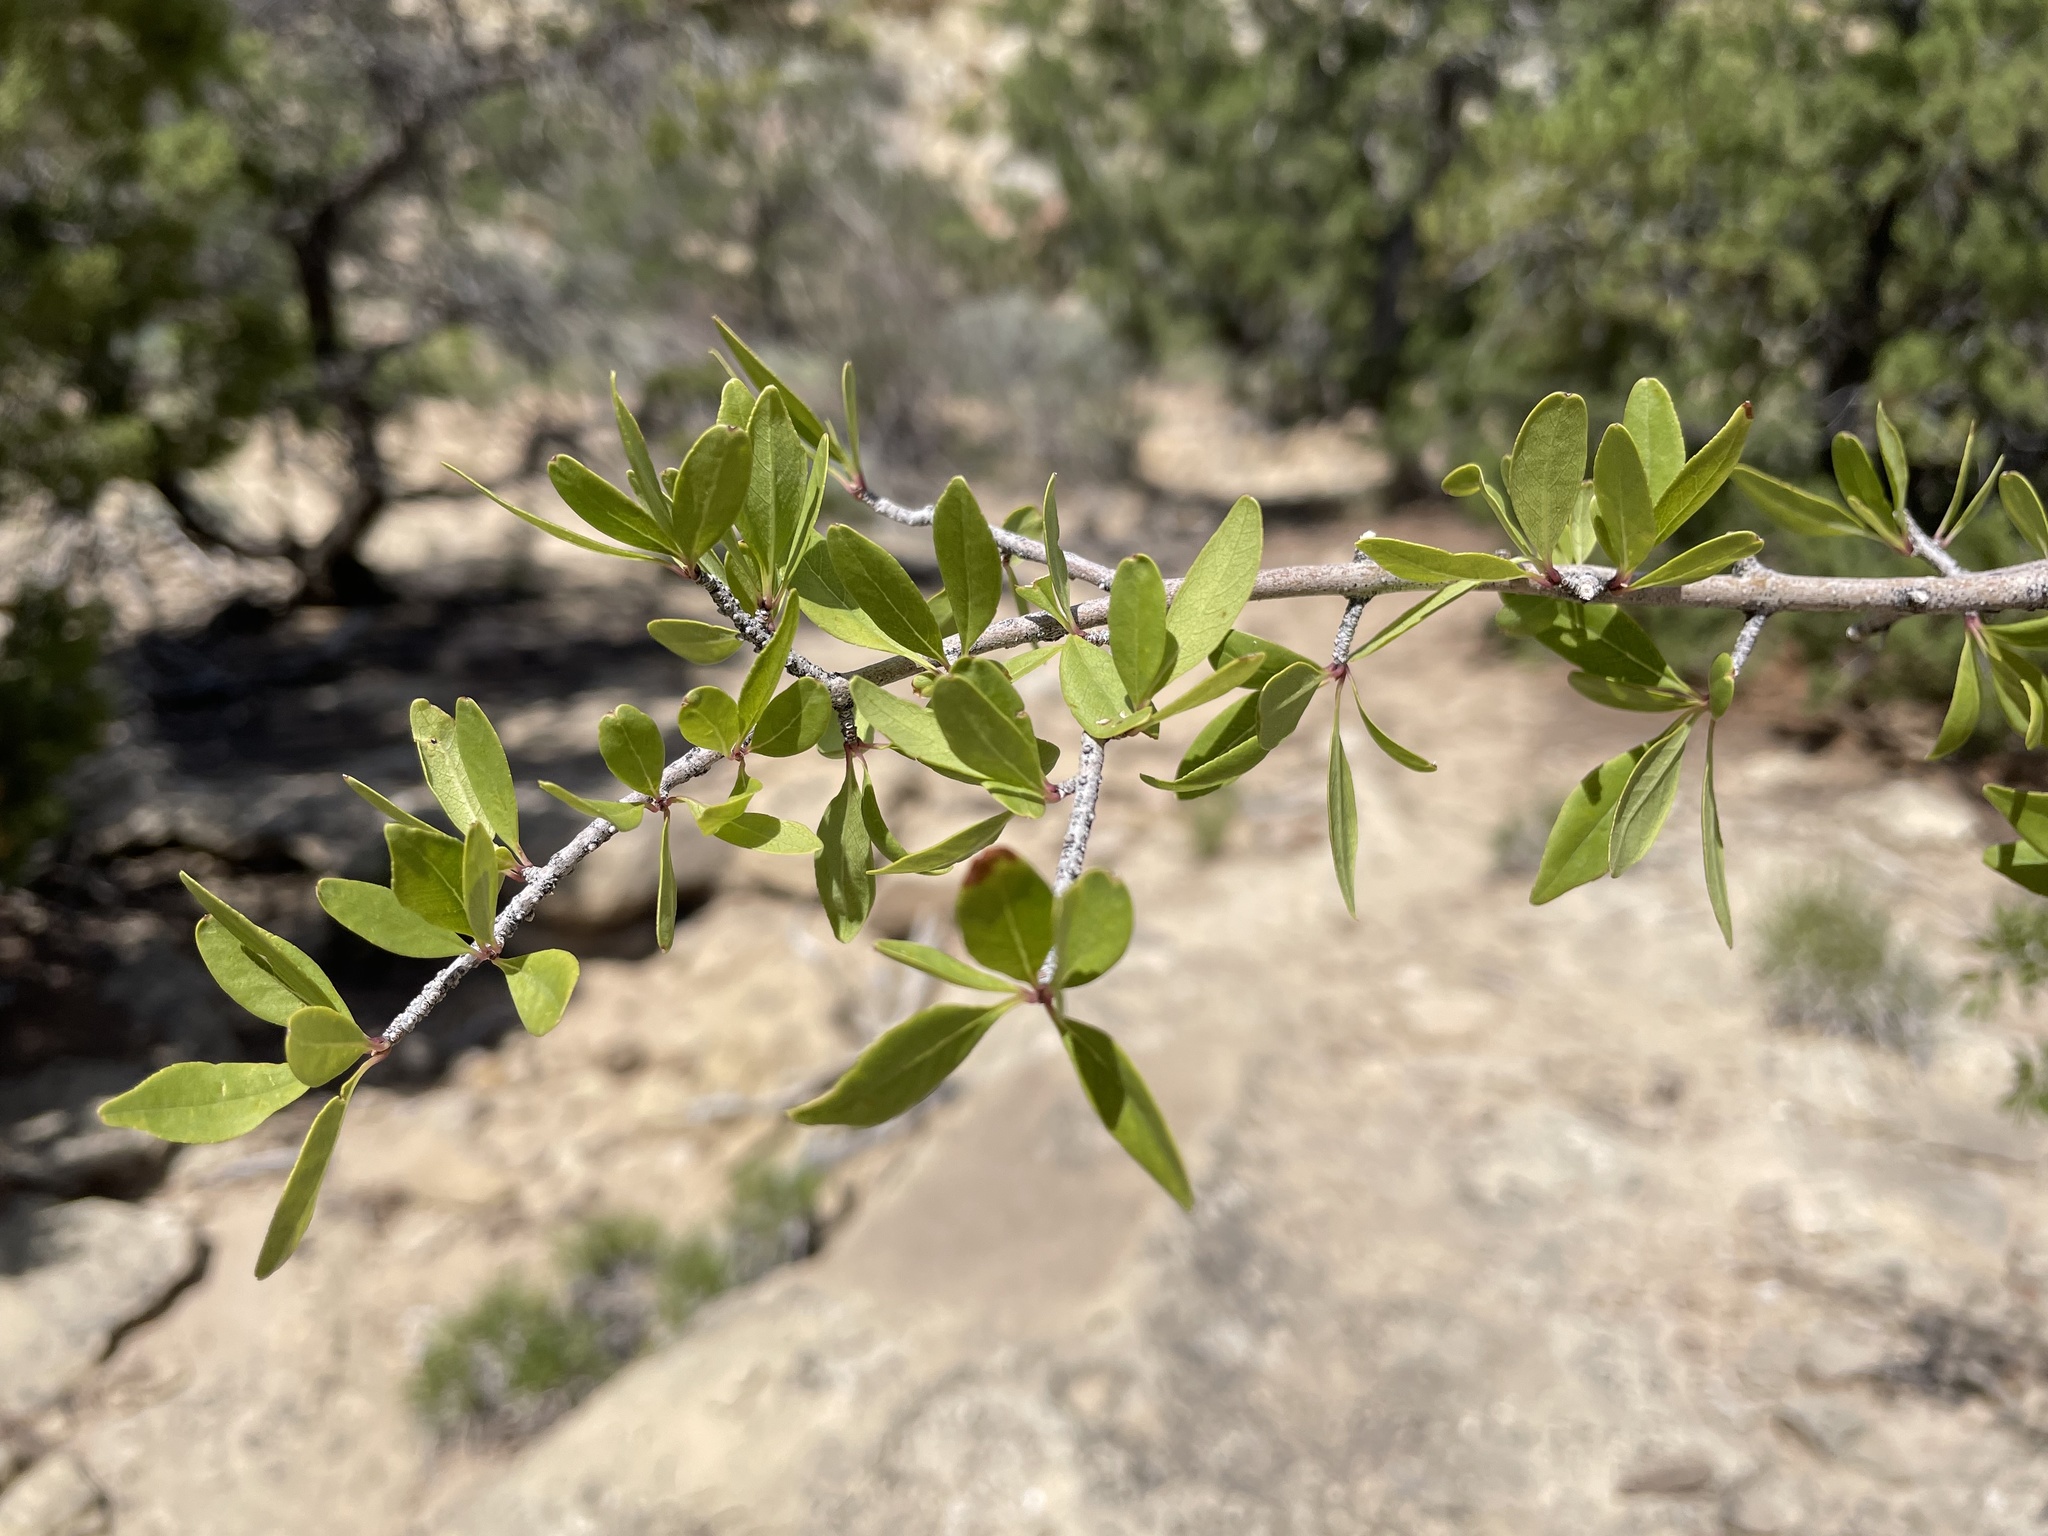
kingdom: Plantae
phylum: Tracheophyta
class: Magnoliopsida
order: Cornales
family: Hydrangeaceae
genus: Fendlera
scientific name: Fendlera rupicola
